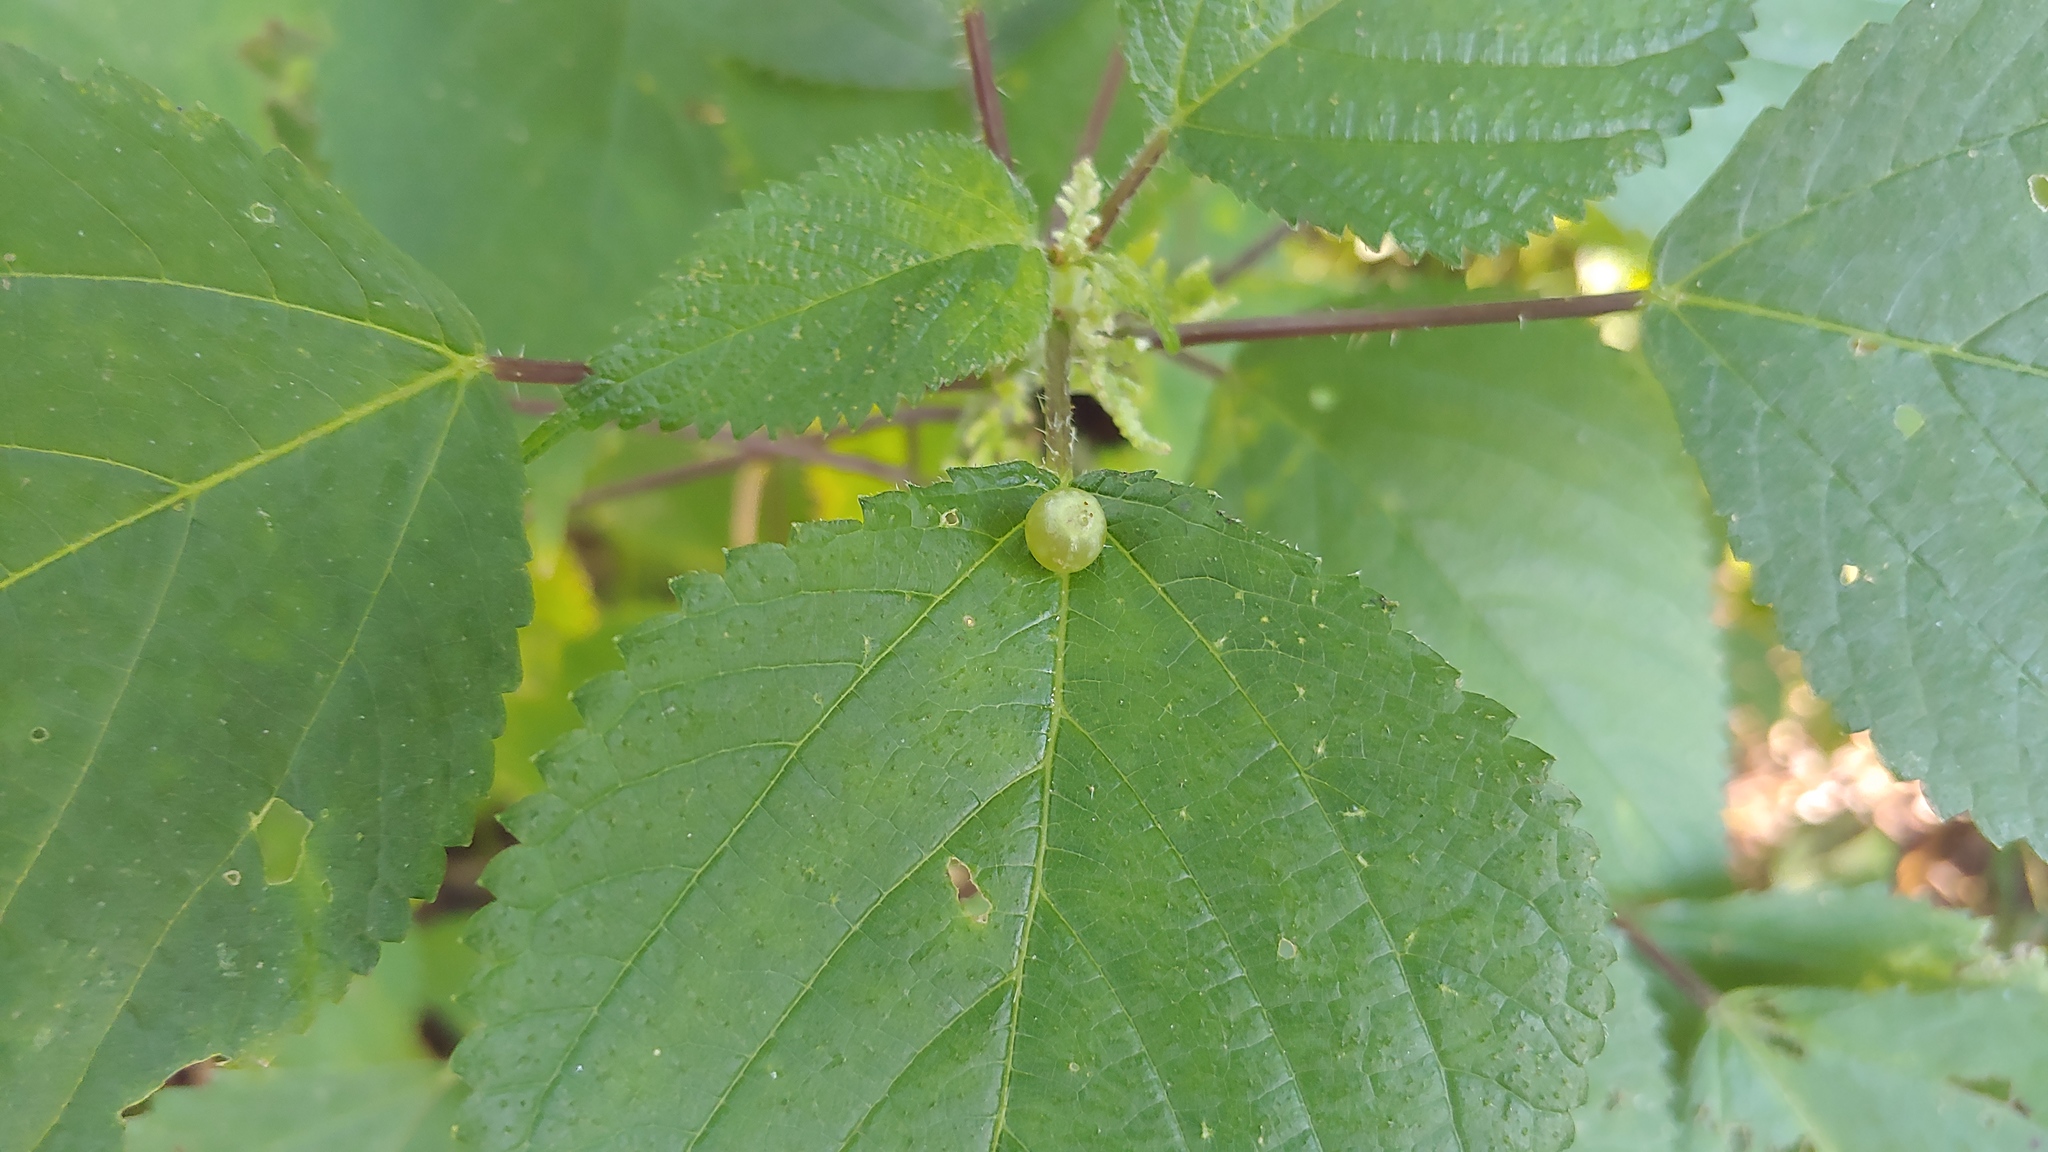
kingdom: Animalia
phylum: Arthropoda
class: Insecta
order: Diptera
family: Cecidomyiidae
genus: Dasineura
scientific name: Dasineura investita
